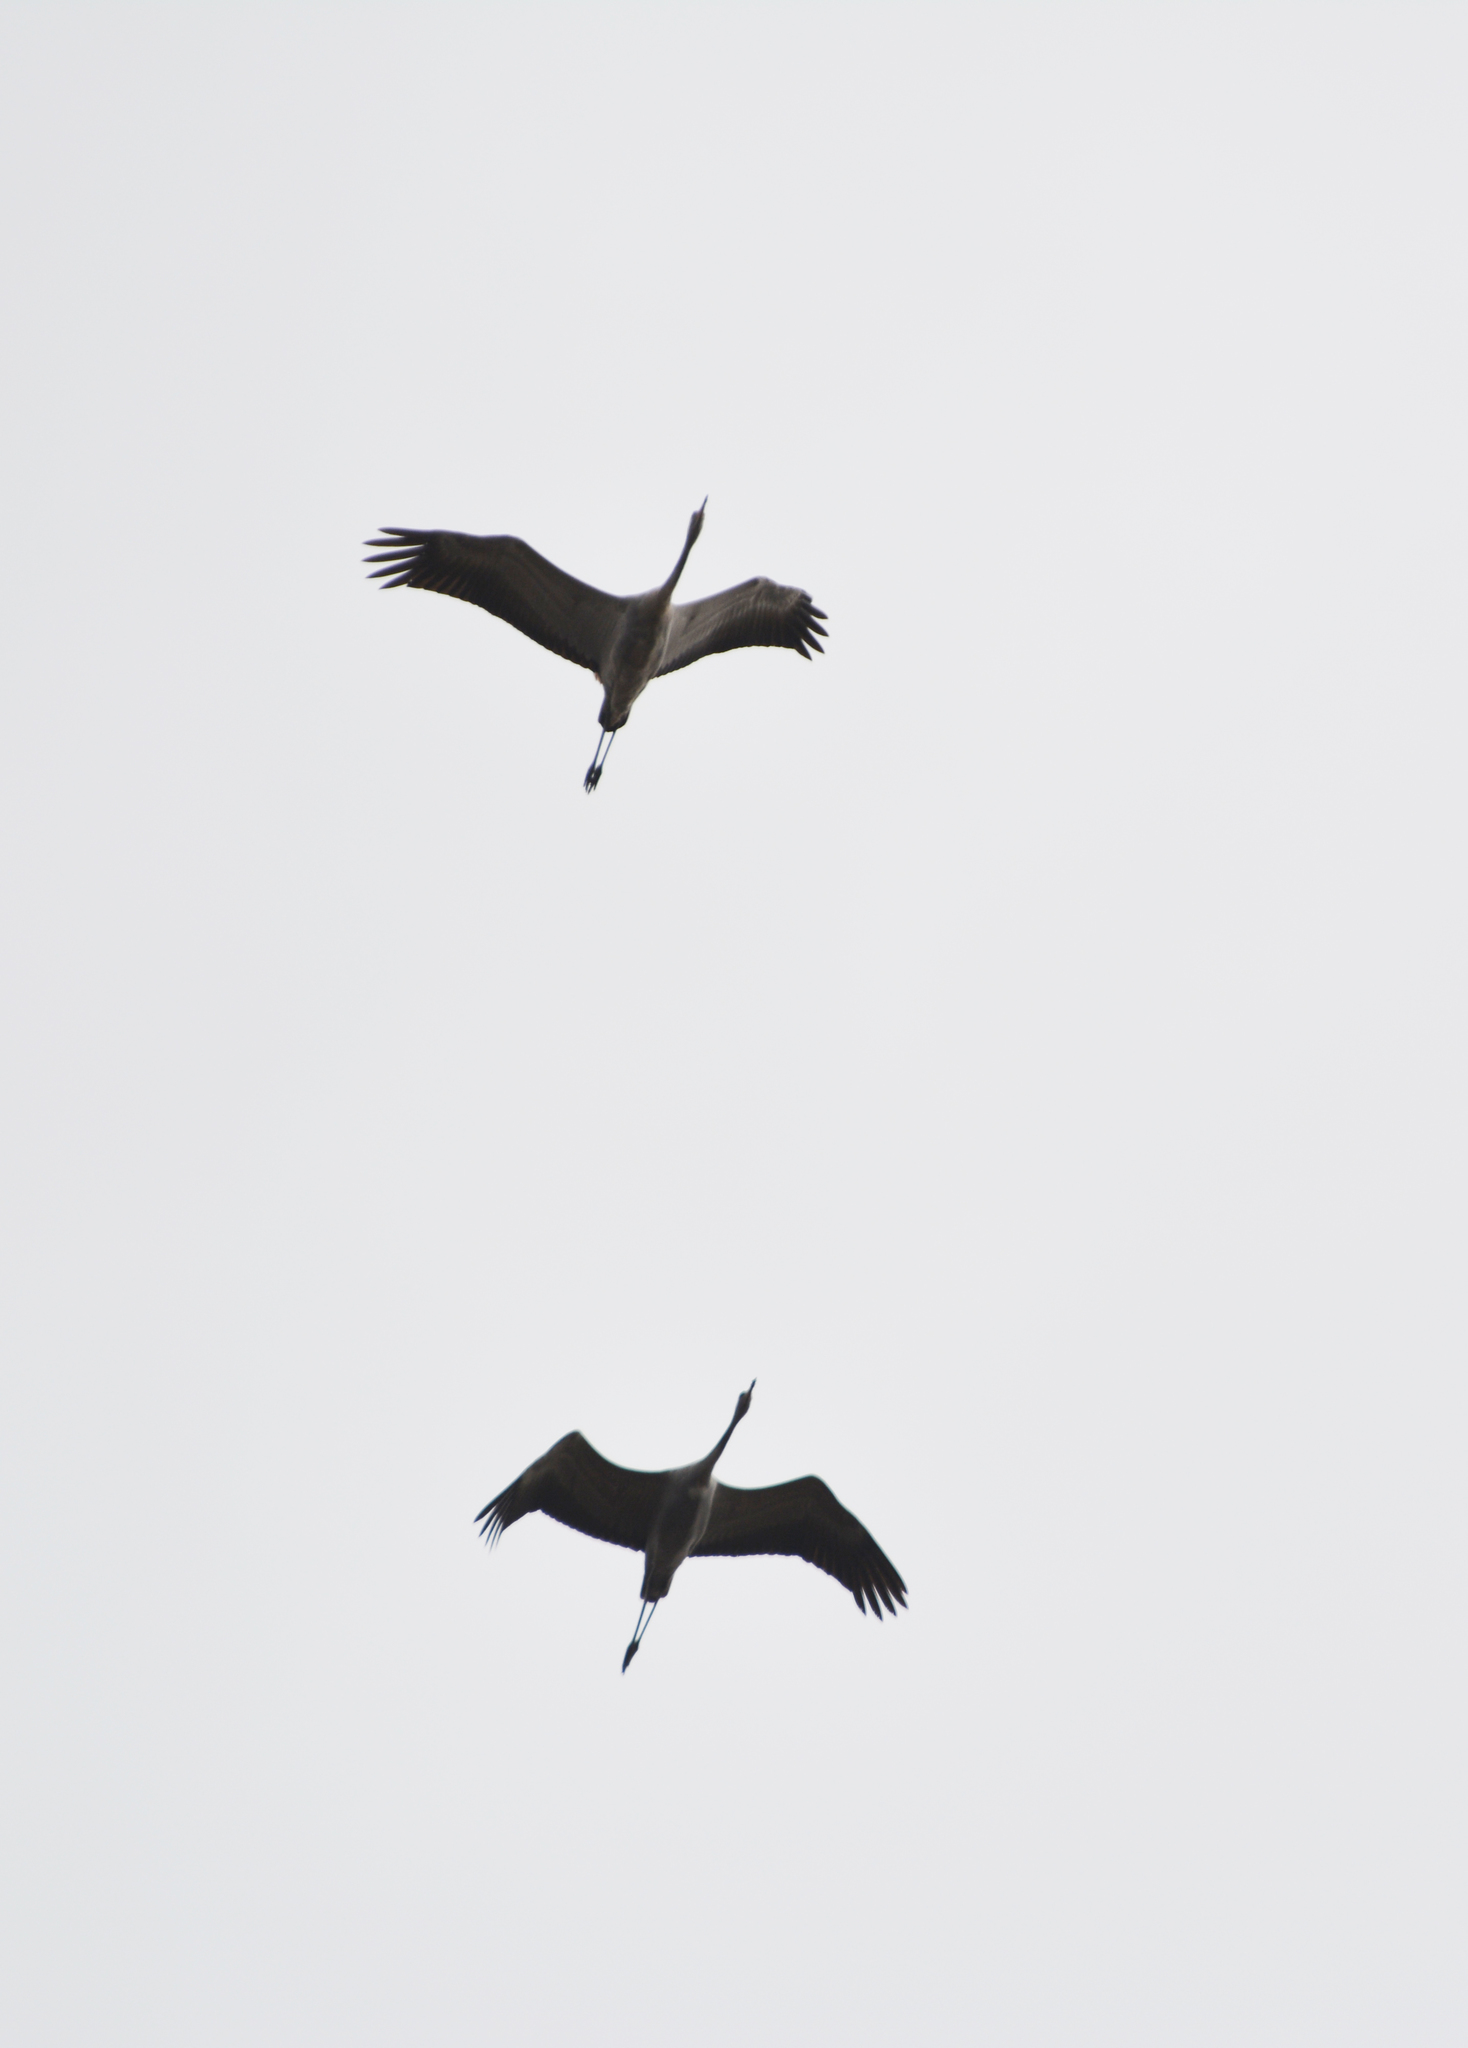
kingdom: Animalia
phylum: Chordata
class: Aves
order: Gruiformes
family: Gruidae
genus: Grus
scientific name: Grus grus
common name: Common crane
